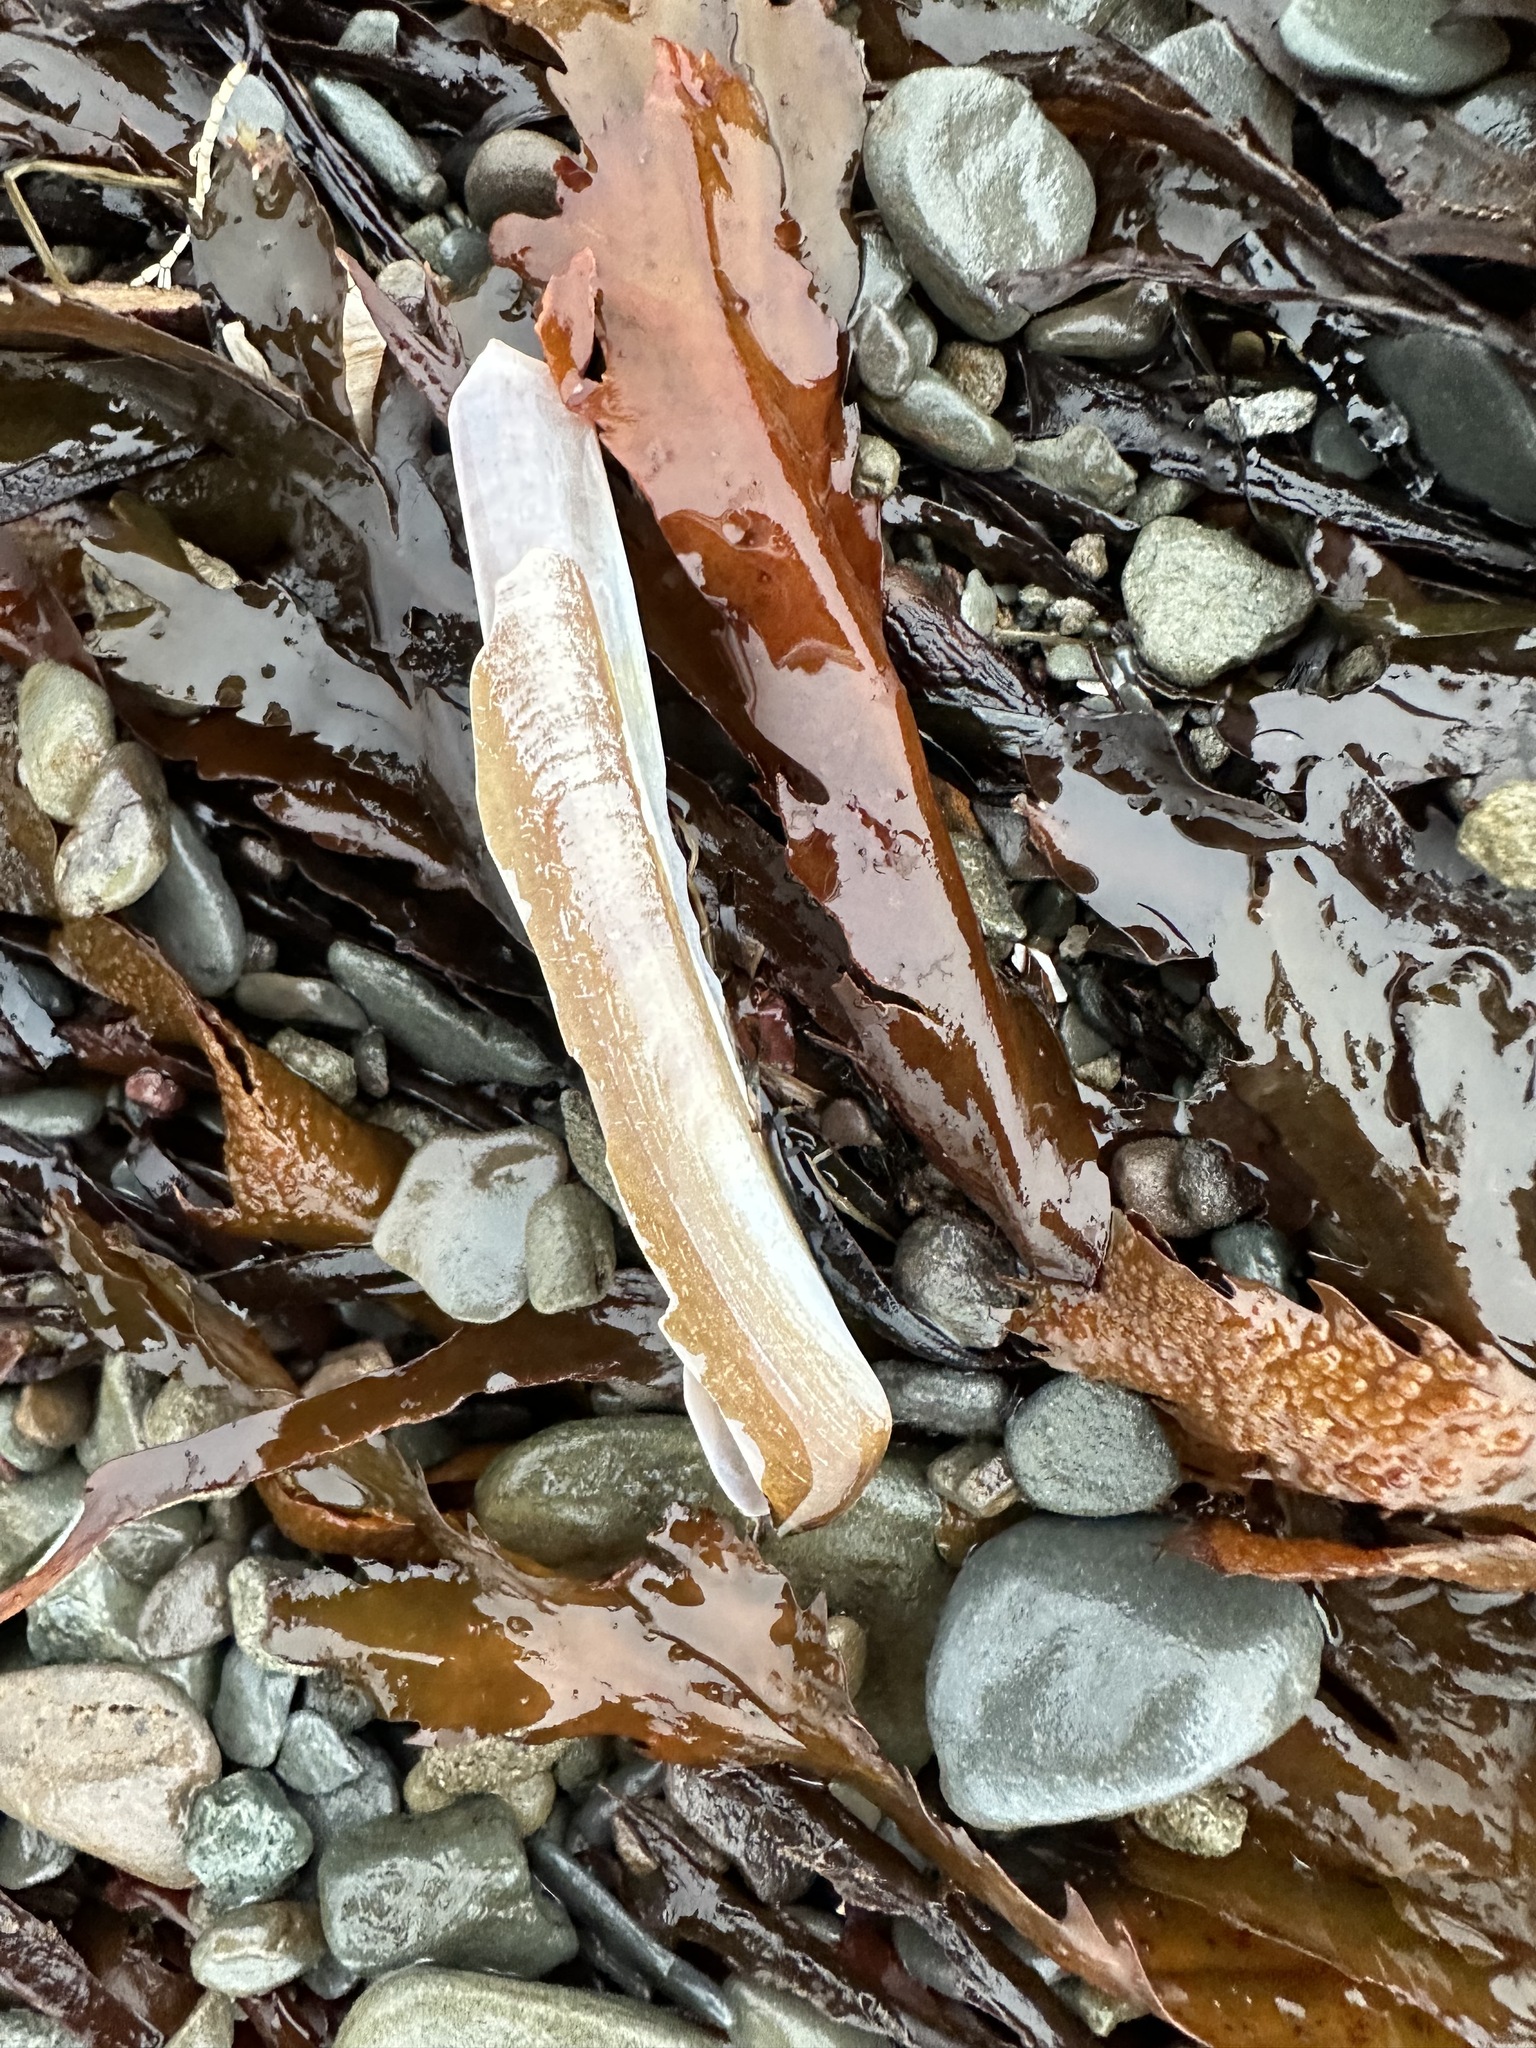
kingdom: Animalia
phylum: Mollusca
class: Bivalvia
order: Adapedonta
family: Pharidae
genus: Ensis
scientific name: Ensis leei
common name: American jack knife clam
